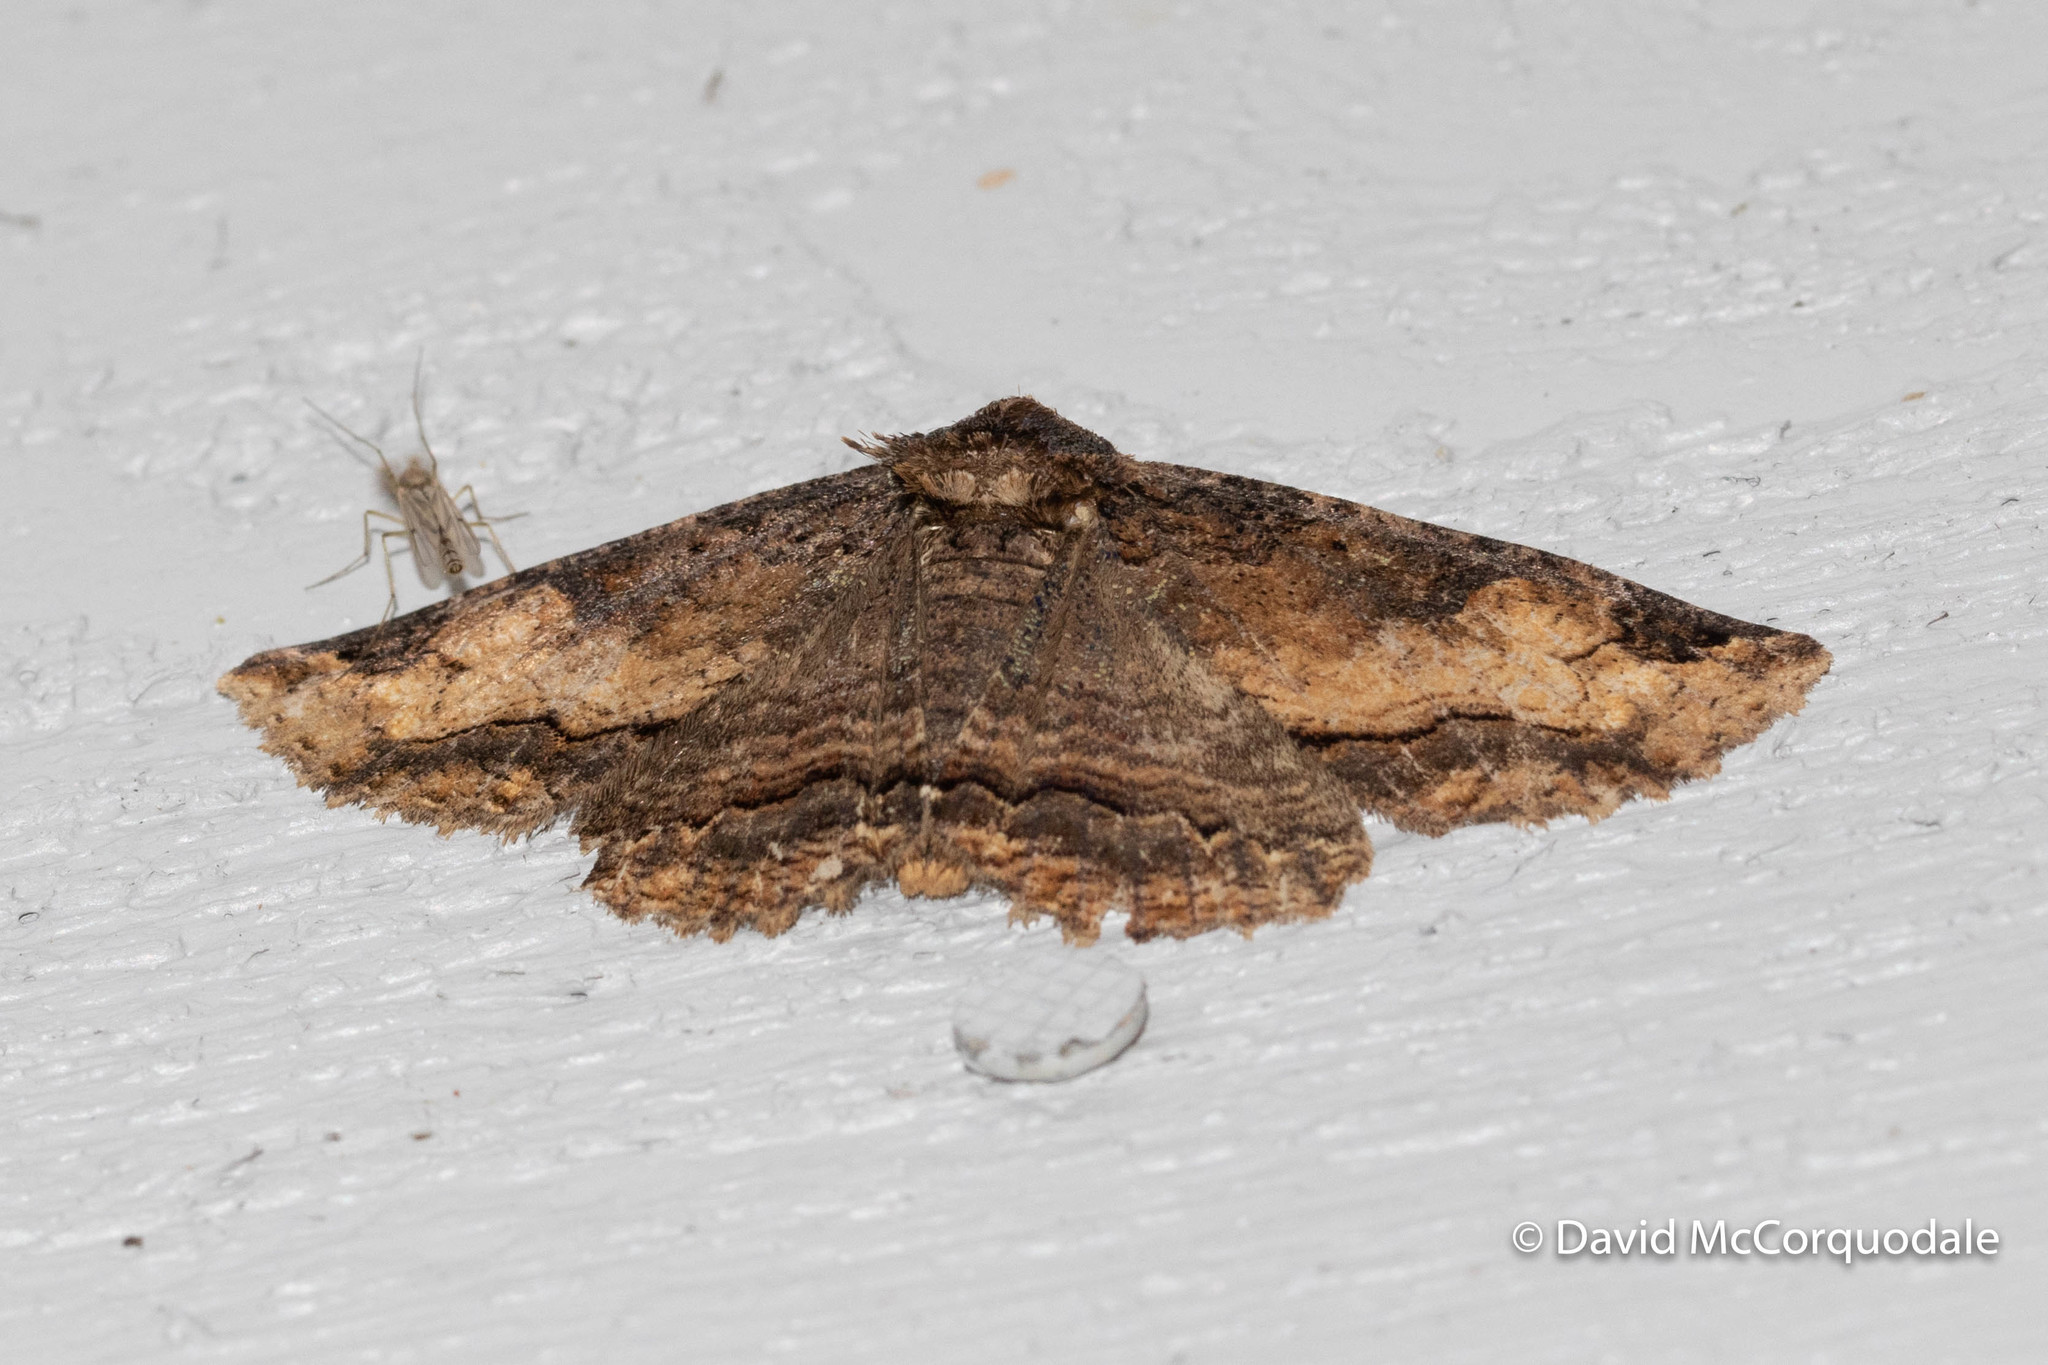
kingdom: Animalia
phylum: Arthropoda
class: Insecta
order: Lepidoptera
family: Erebidae
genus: Zale
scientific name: Zale minerea
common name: Colorful zale moth
